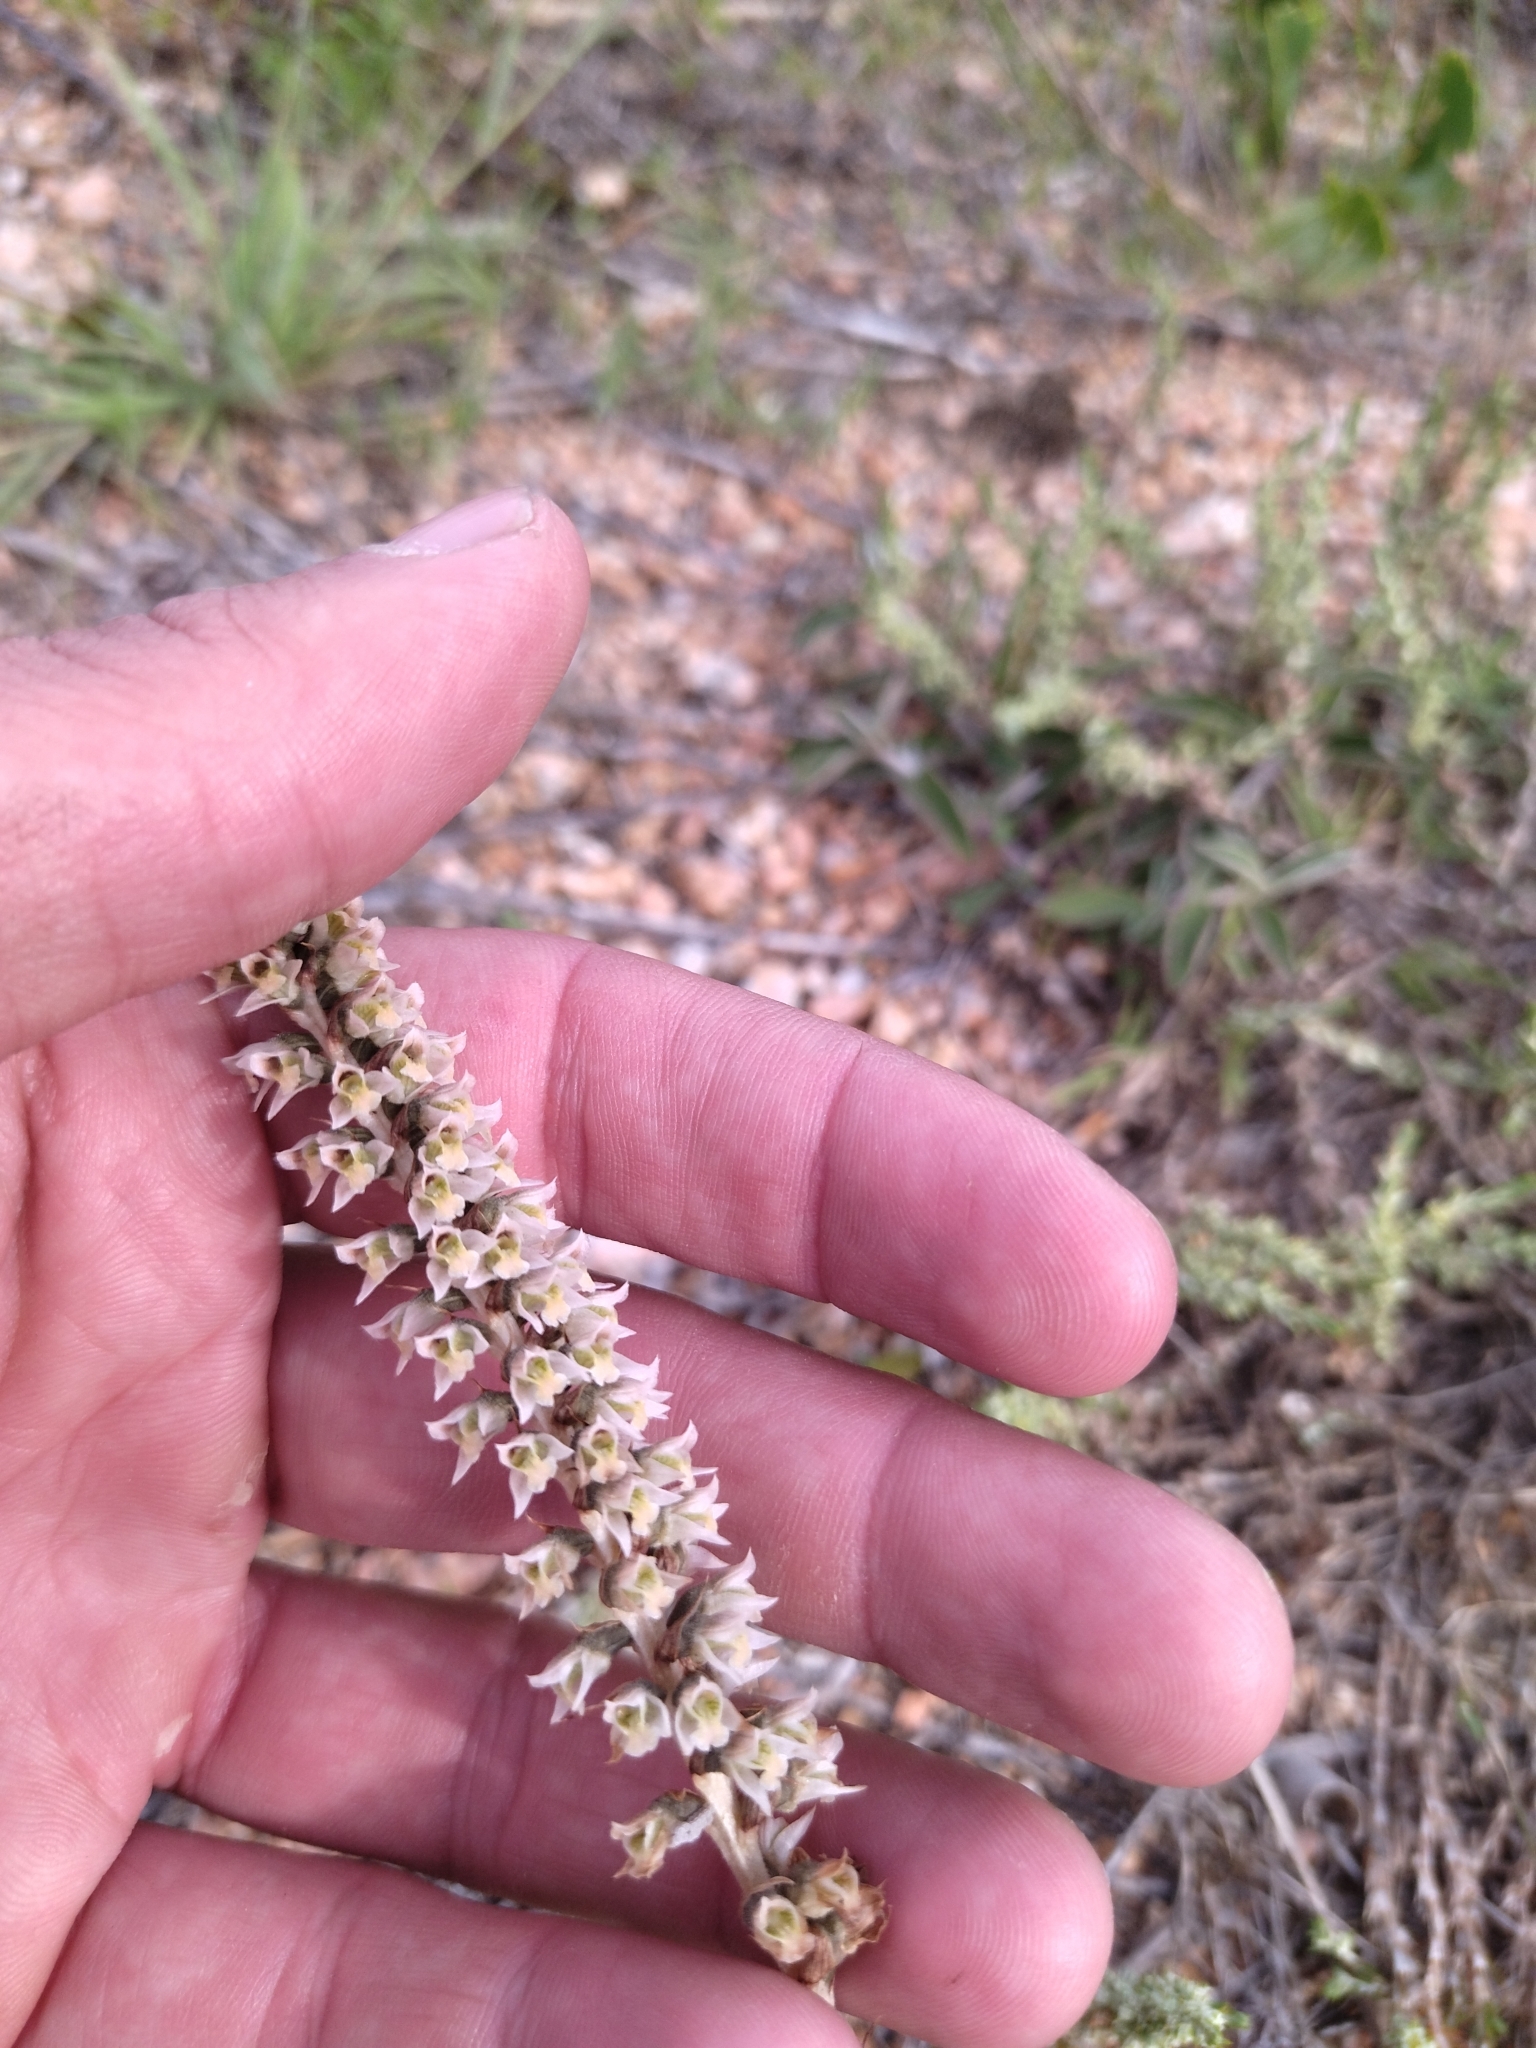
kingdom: Plantae
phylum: Tracheophyta
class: Liliopsida
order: Asparagales
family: Orchidaceae
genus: Brachystele
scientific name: Brachystele camporum
